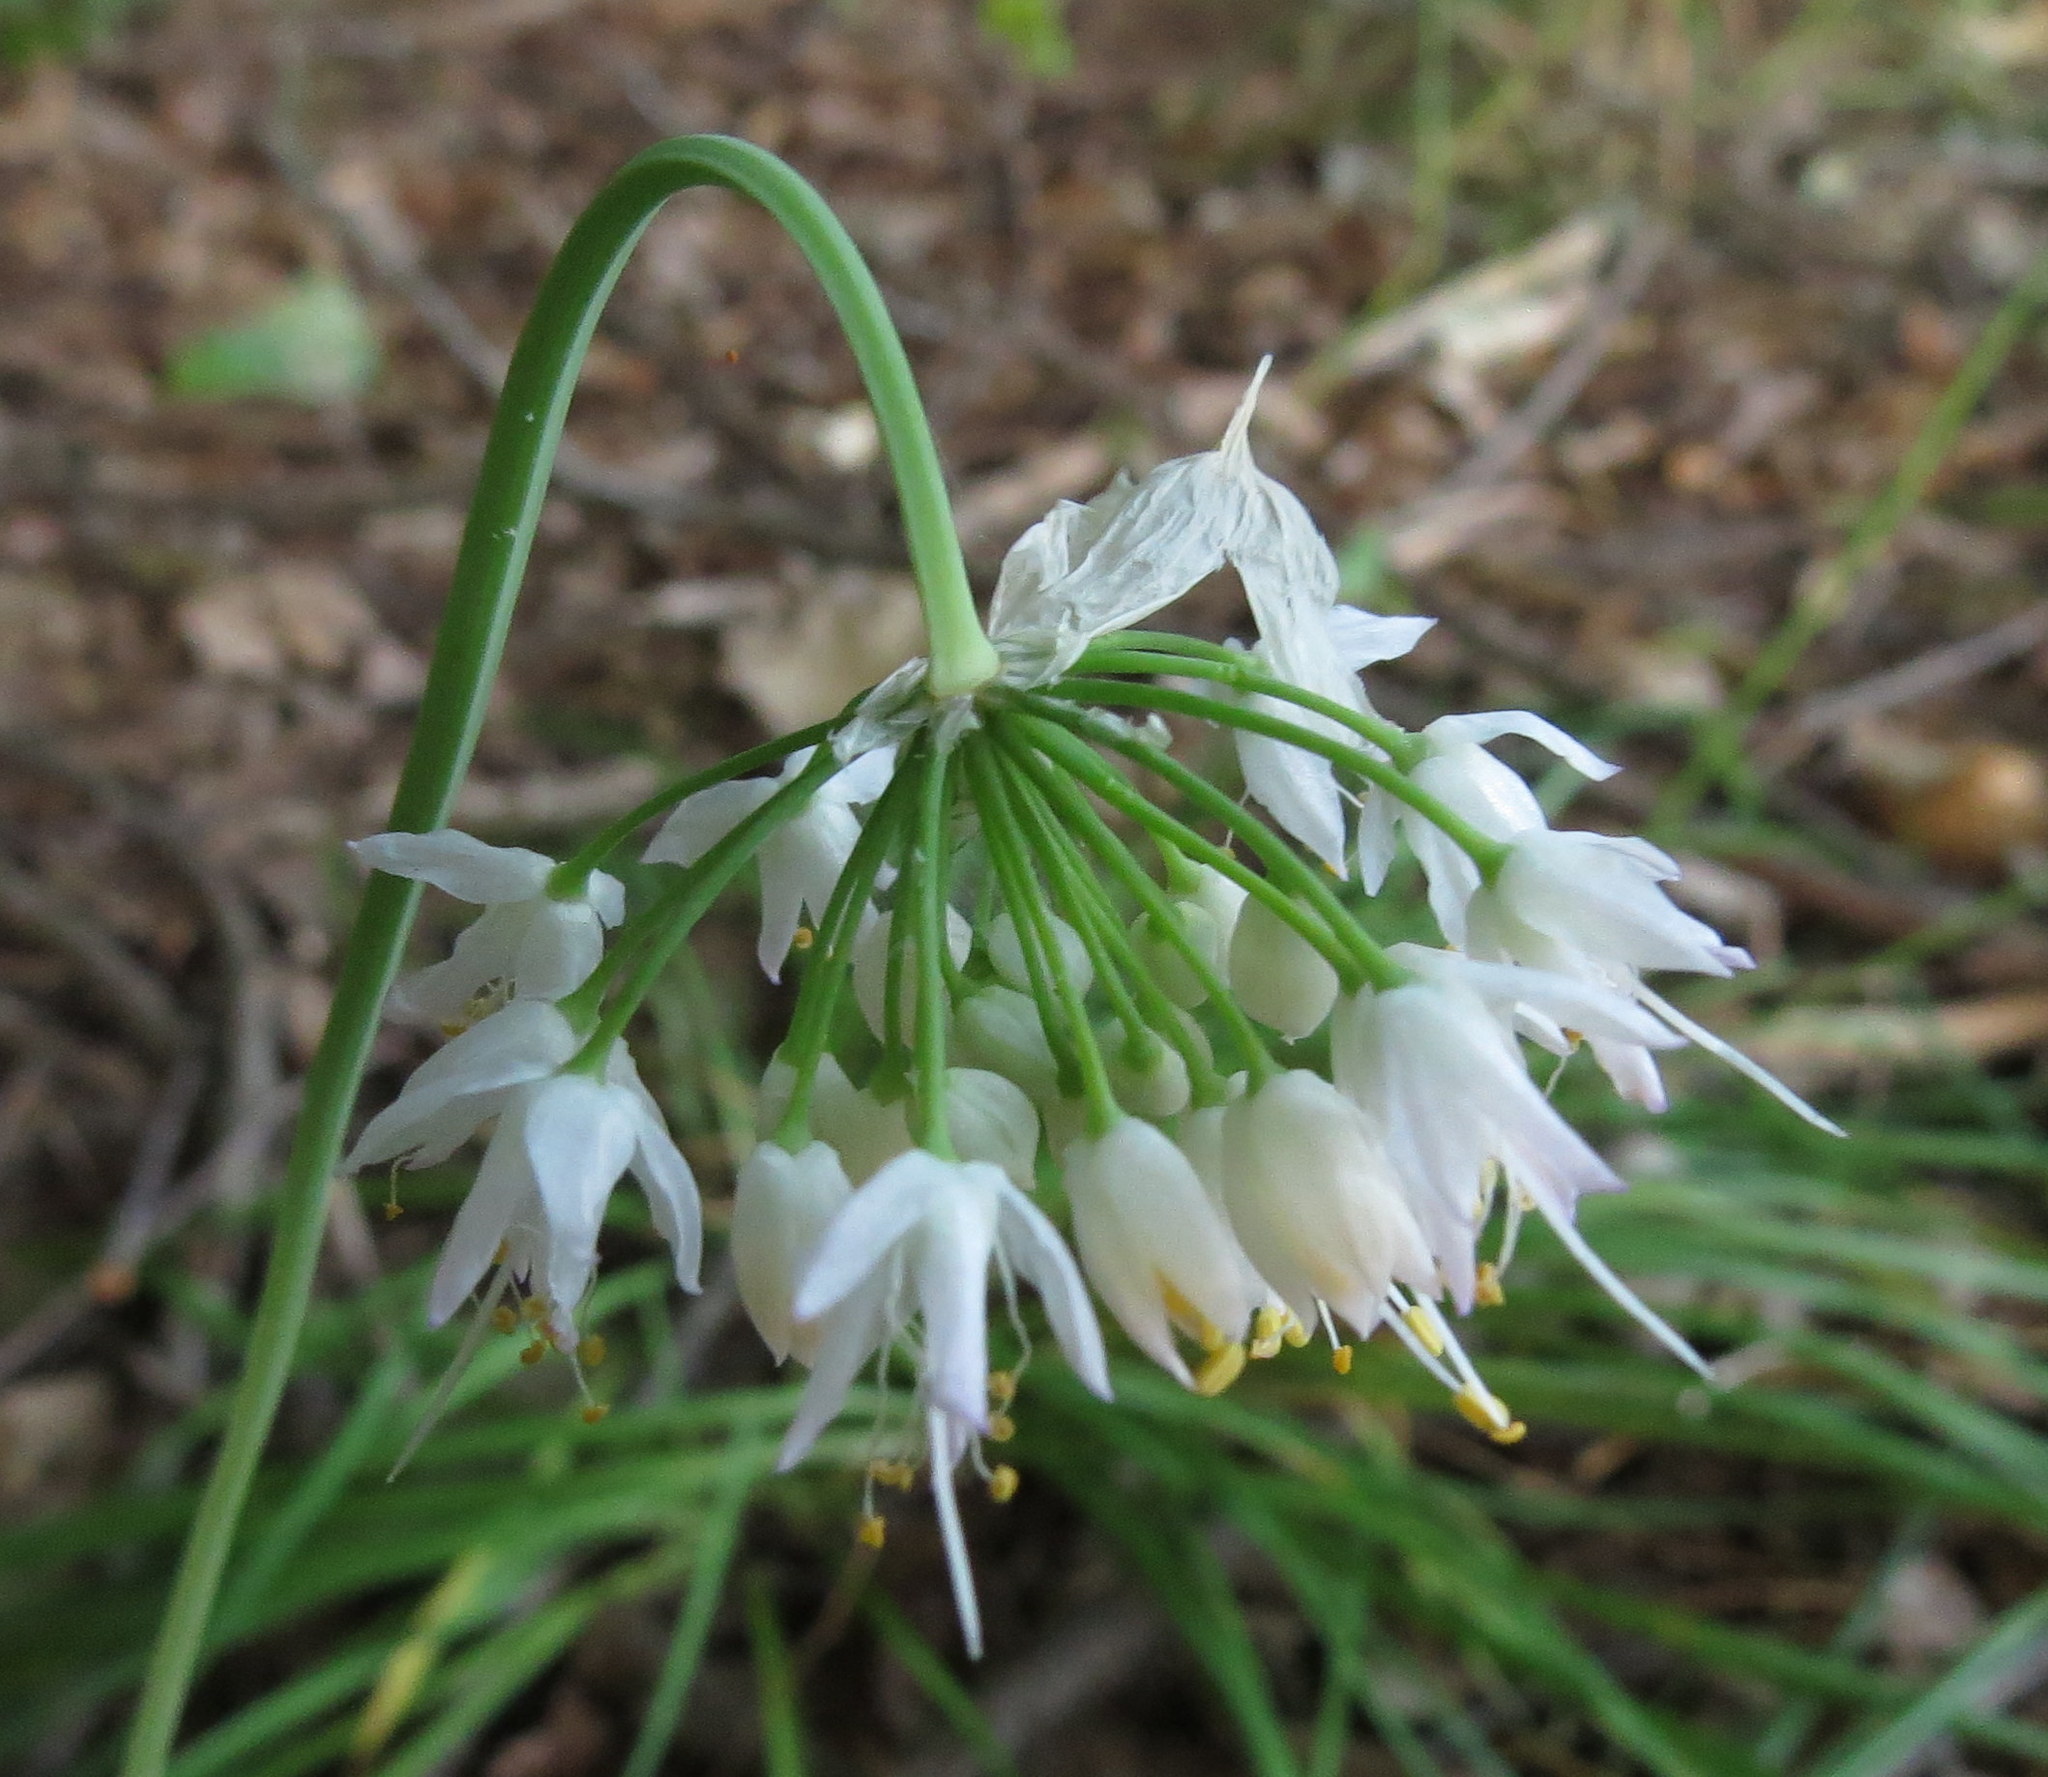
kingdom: Plantae
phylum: Tracheophyta
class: Liliopsida
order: Asparagales
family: Amaryllidaceae
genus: Allium
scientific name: Allium cernuum
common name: Nodding onion
